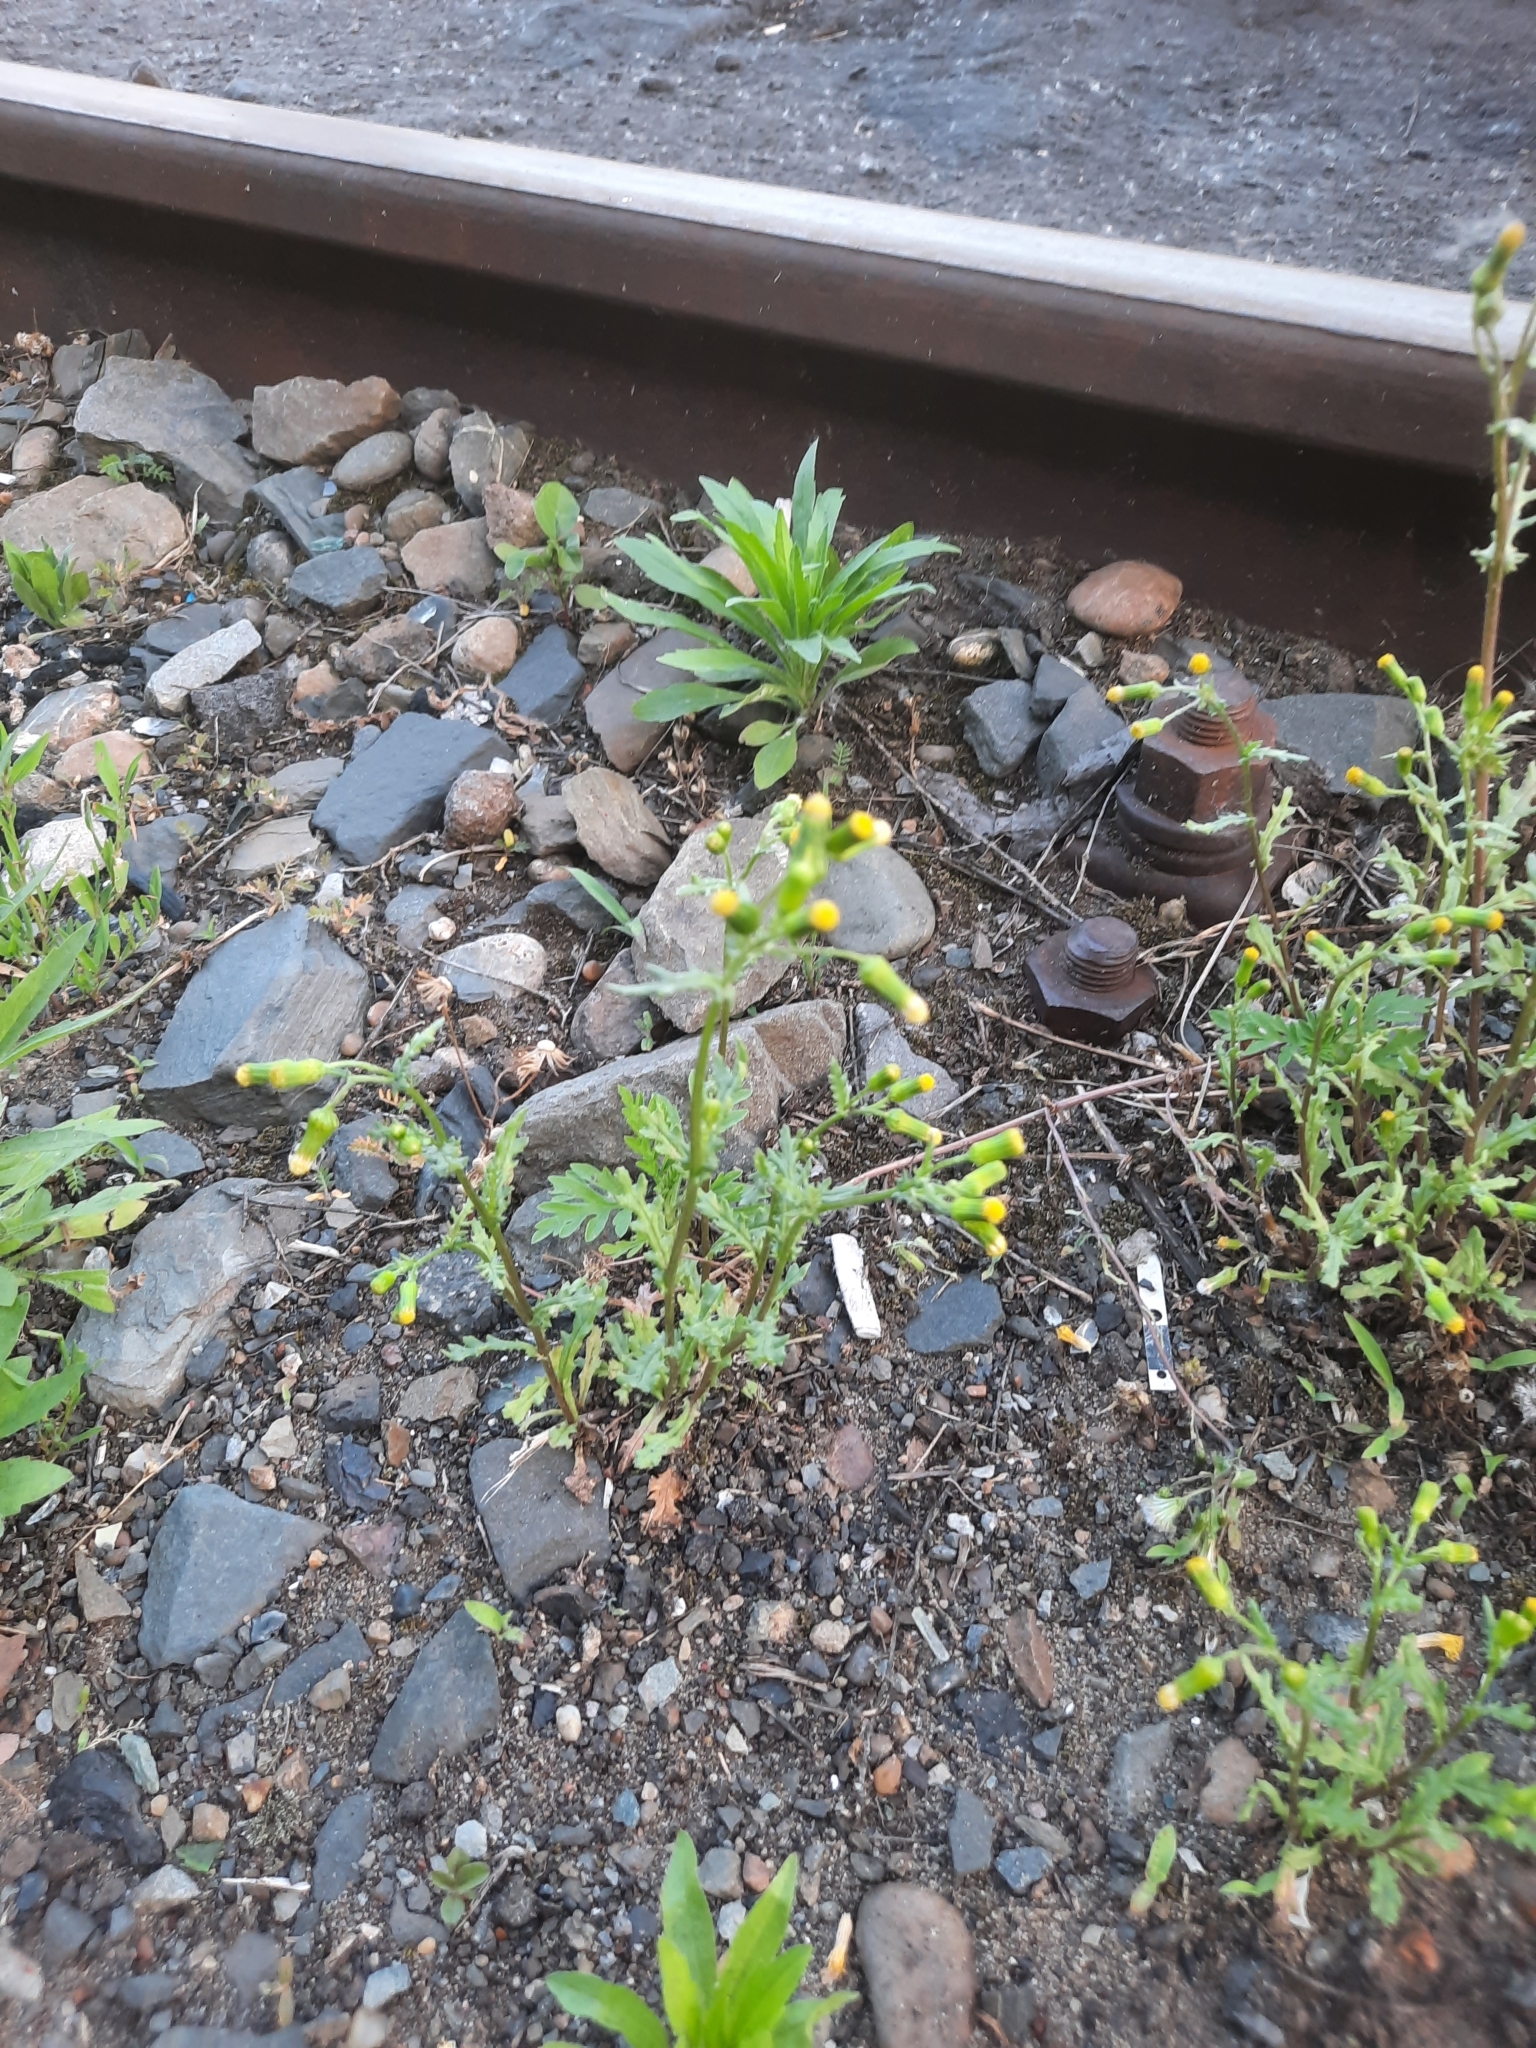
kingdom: Plantae
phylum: Tracheophyta
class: Magnoliopsida
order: Asterales
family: Asteraceae
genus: Senecio
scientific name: Senecio vulgaris
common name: Old-man-in-the-spring
